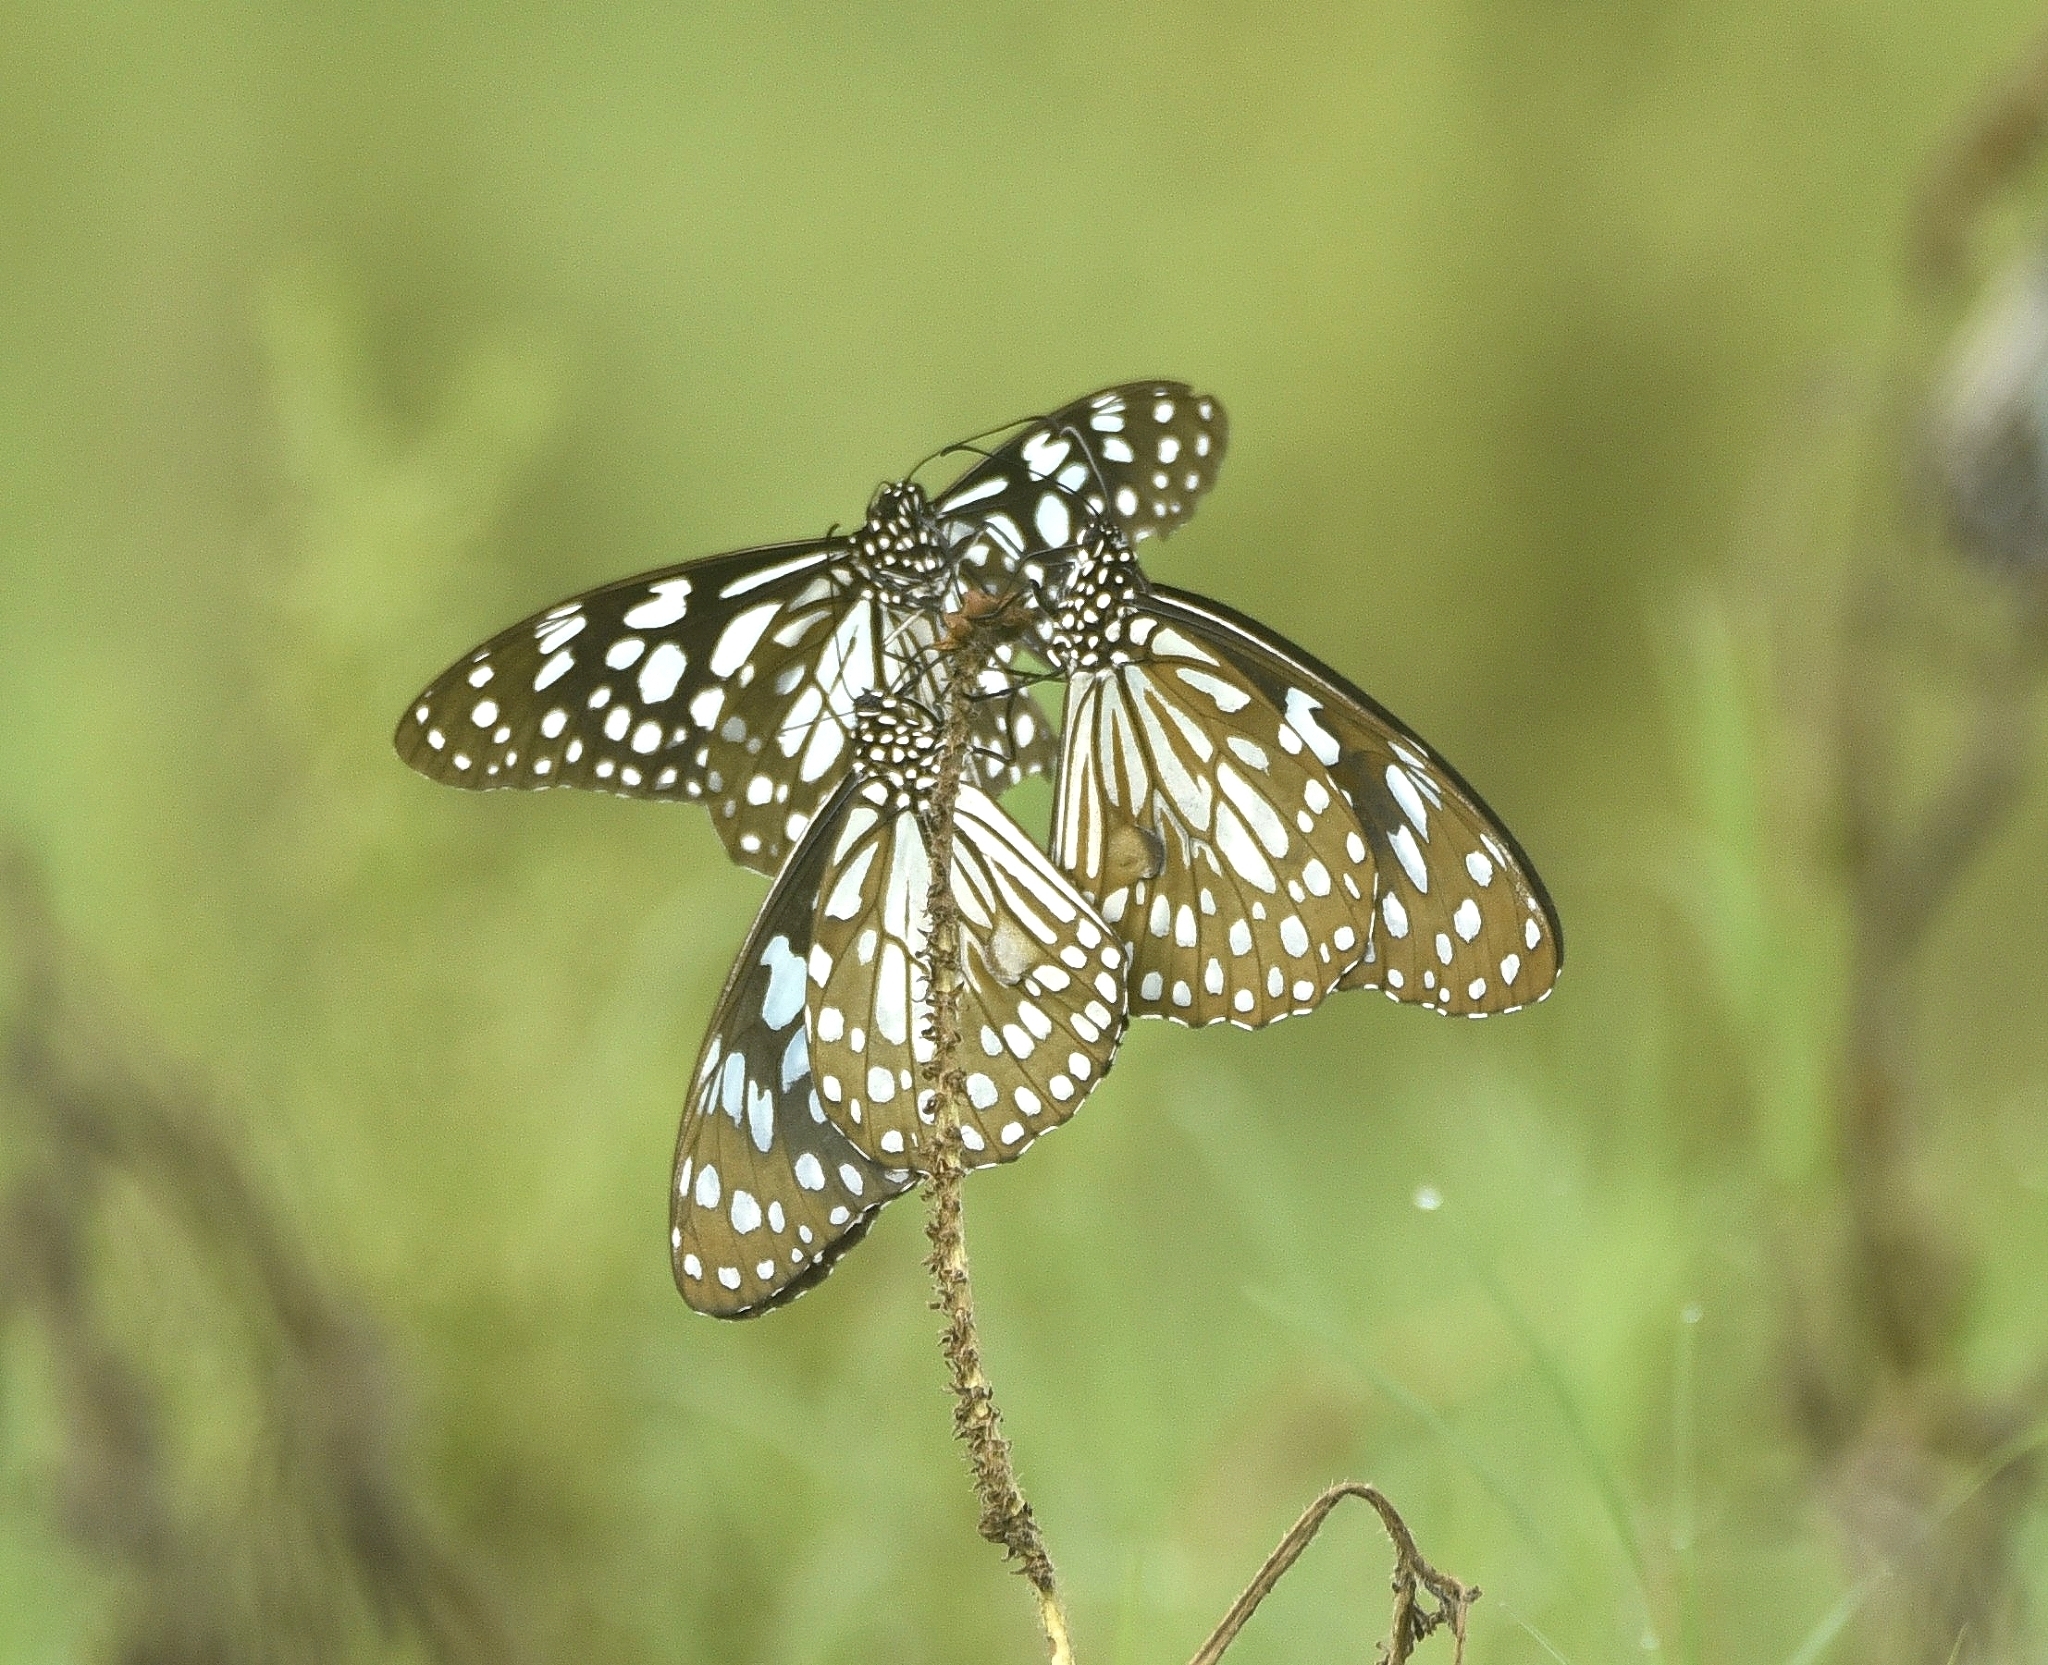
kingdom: Animalia
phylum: Arthropoda
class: Insecta
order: Lepidoptera
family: Nymphalidae
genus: Tirumala
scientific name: Tirumala limniace
